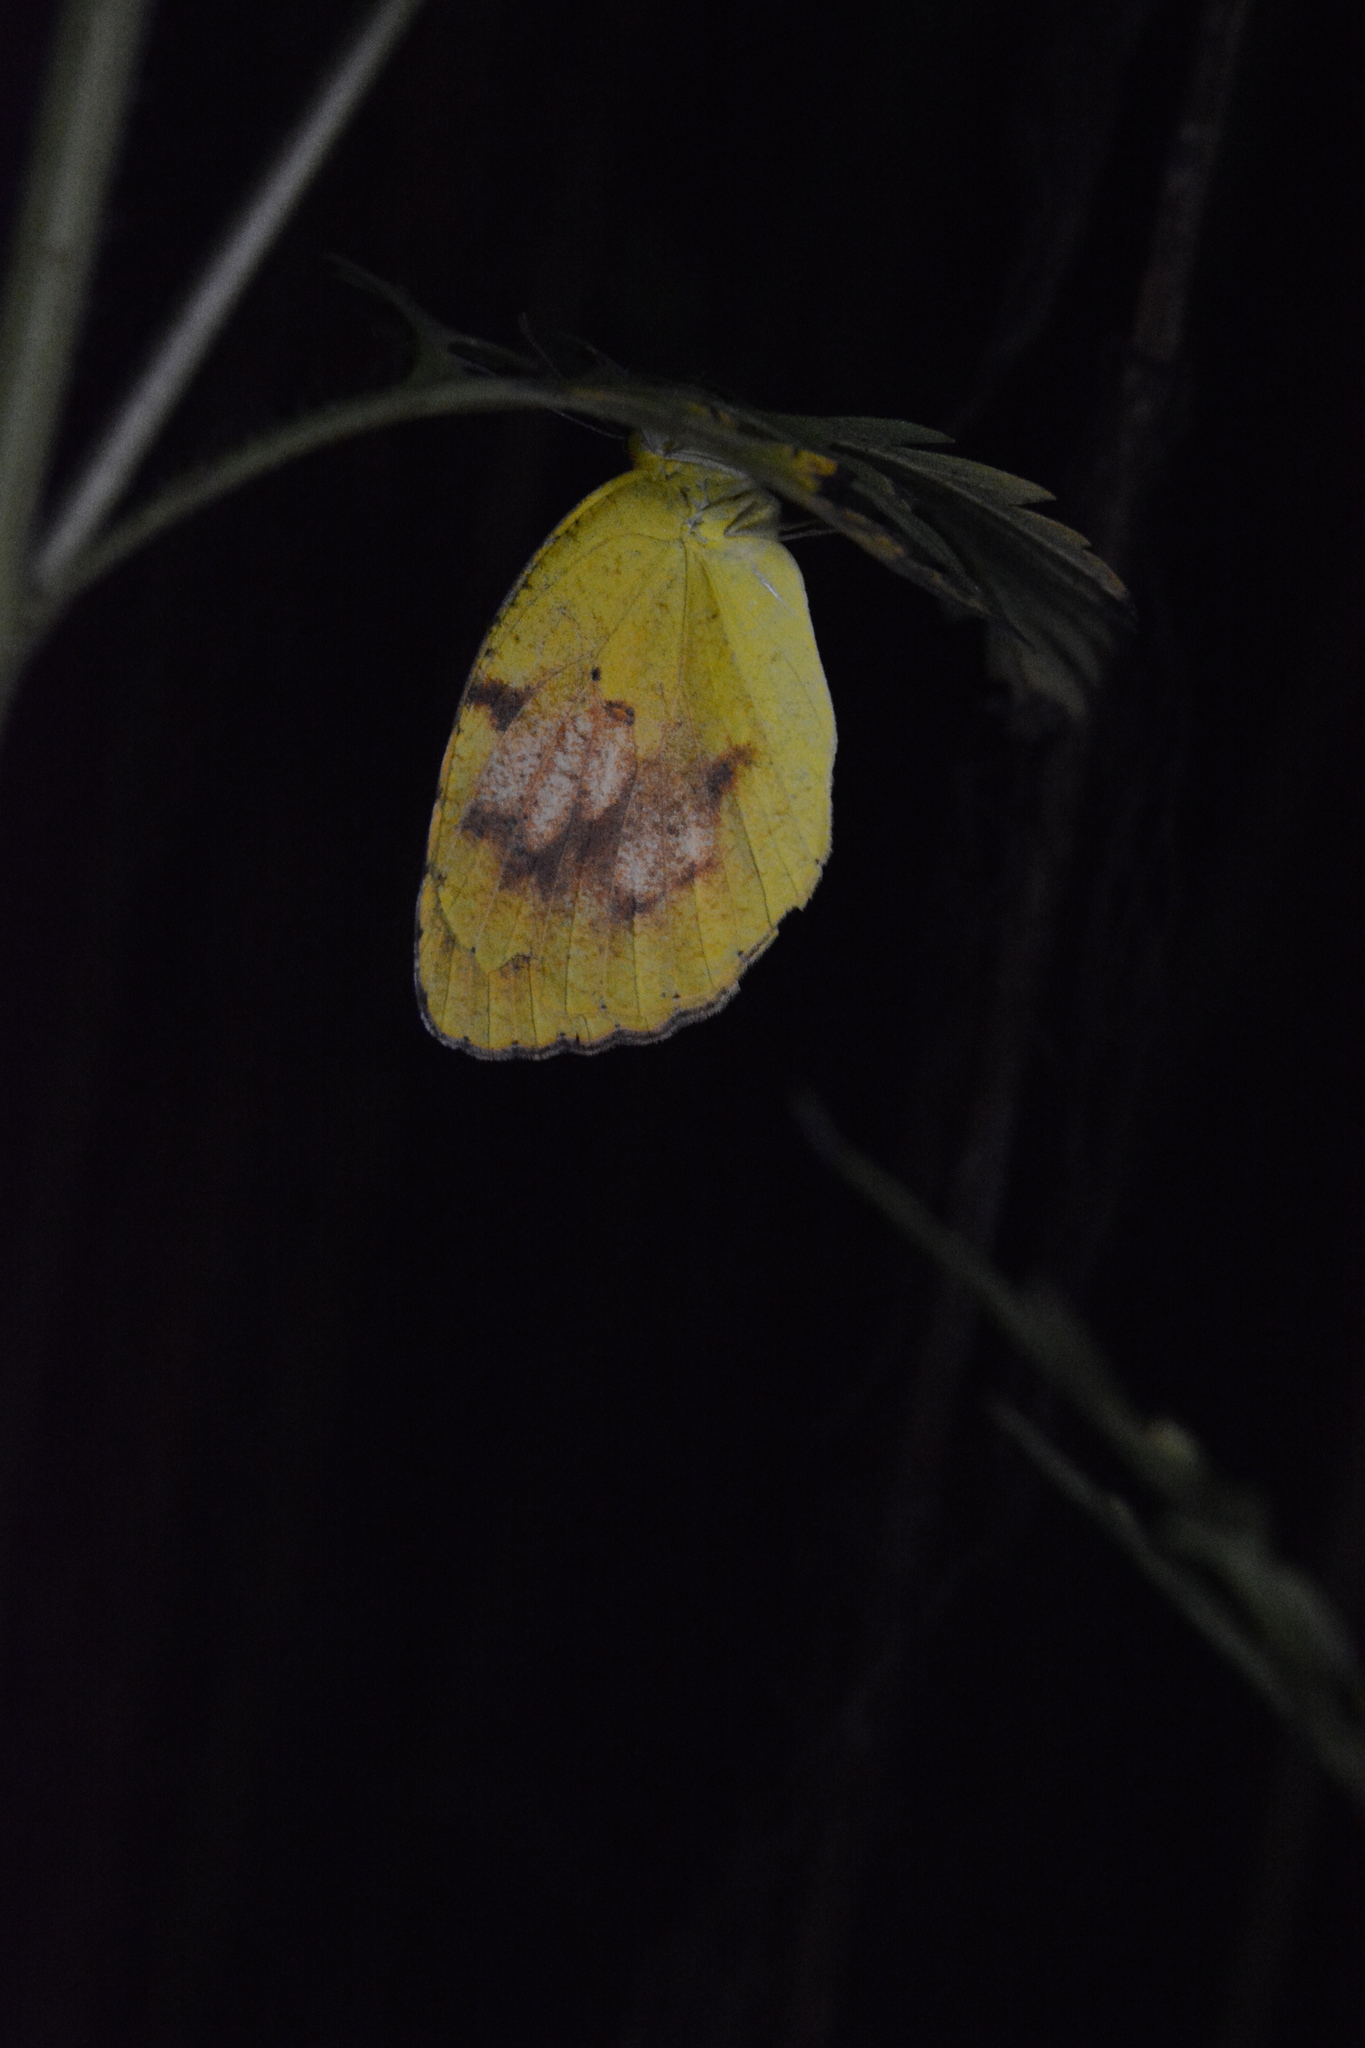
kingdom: Animalia
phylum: Arthropoda
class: Insecta
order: Lepidoptera
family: Pieridae
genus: Abaeis
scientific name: Abaeis nicippe
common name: Sleepy orange
